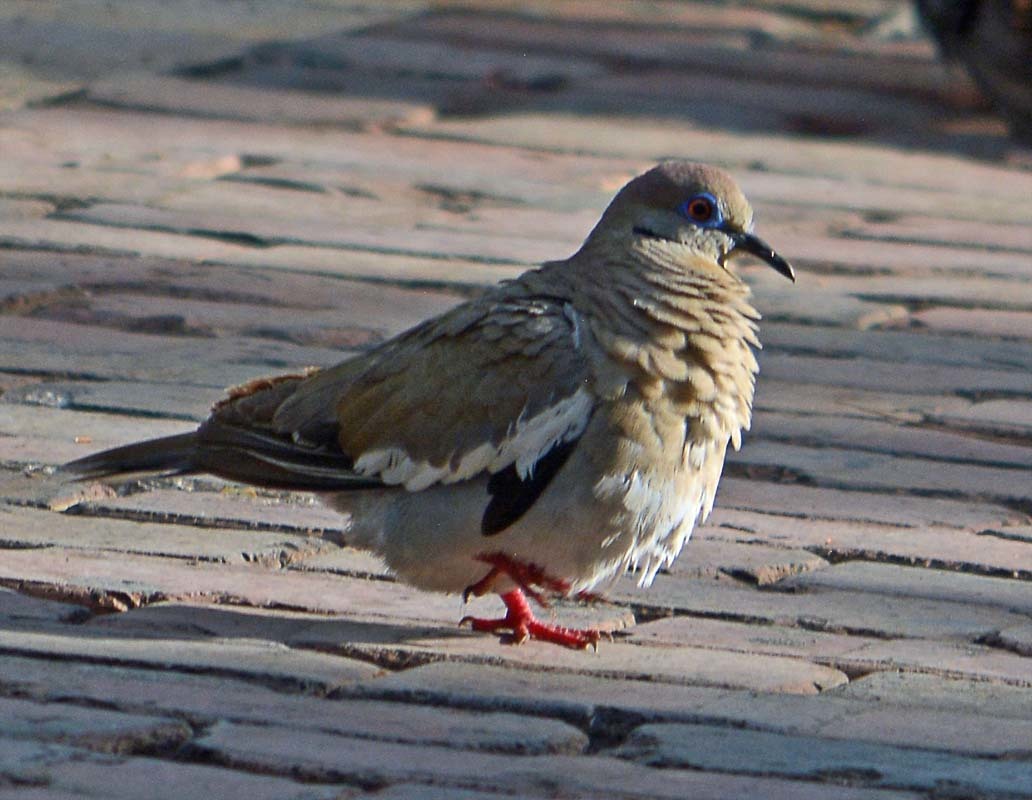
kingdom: Animalia
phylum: Chordata
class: Aves
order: Columbiformes
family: Columbidae
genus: Zenaida
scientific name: Zenaida asiatica
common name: White-winged dove
